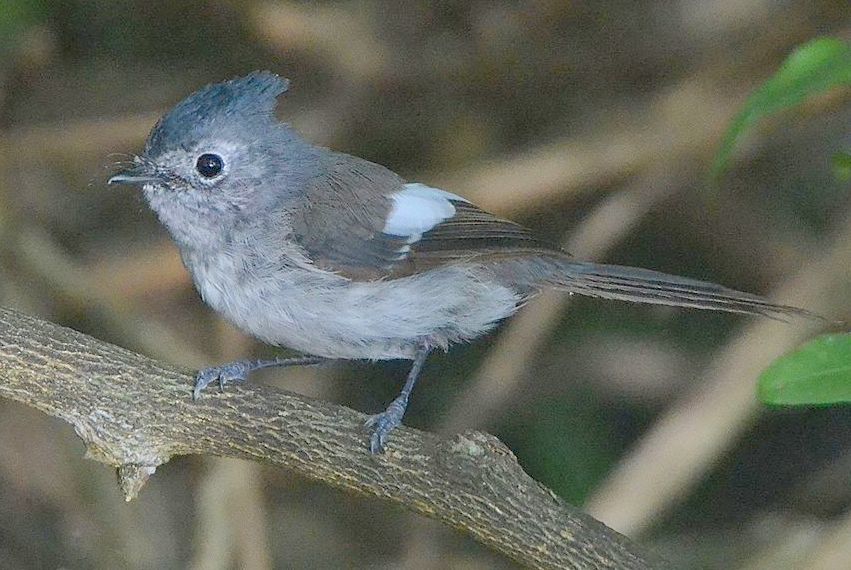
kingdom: Animalia
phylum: Chordata
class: Aves
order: Passeriformes
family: Monarchidae
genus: Trochocercus
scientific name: Trochocercus cyanomelas
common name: Blue-mantled crested flycatcher
